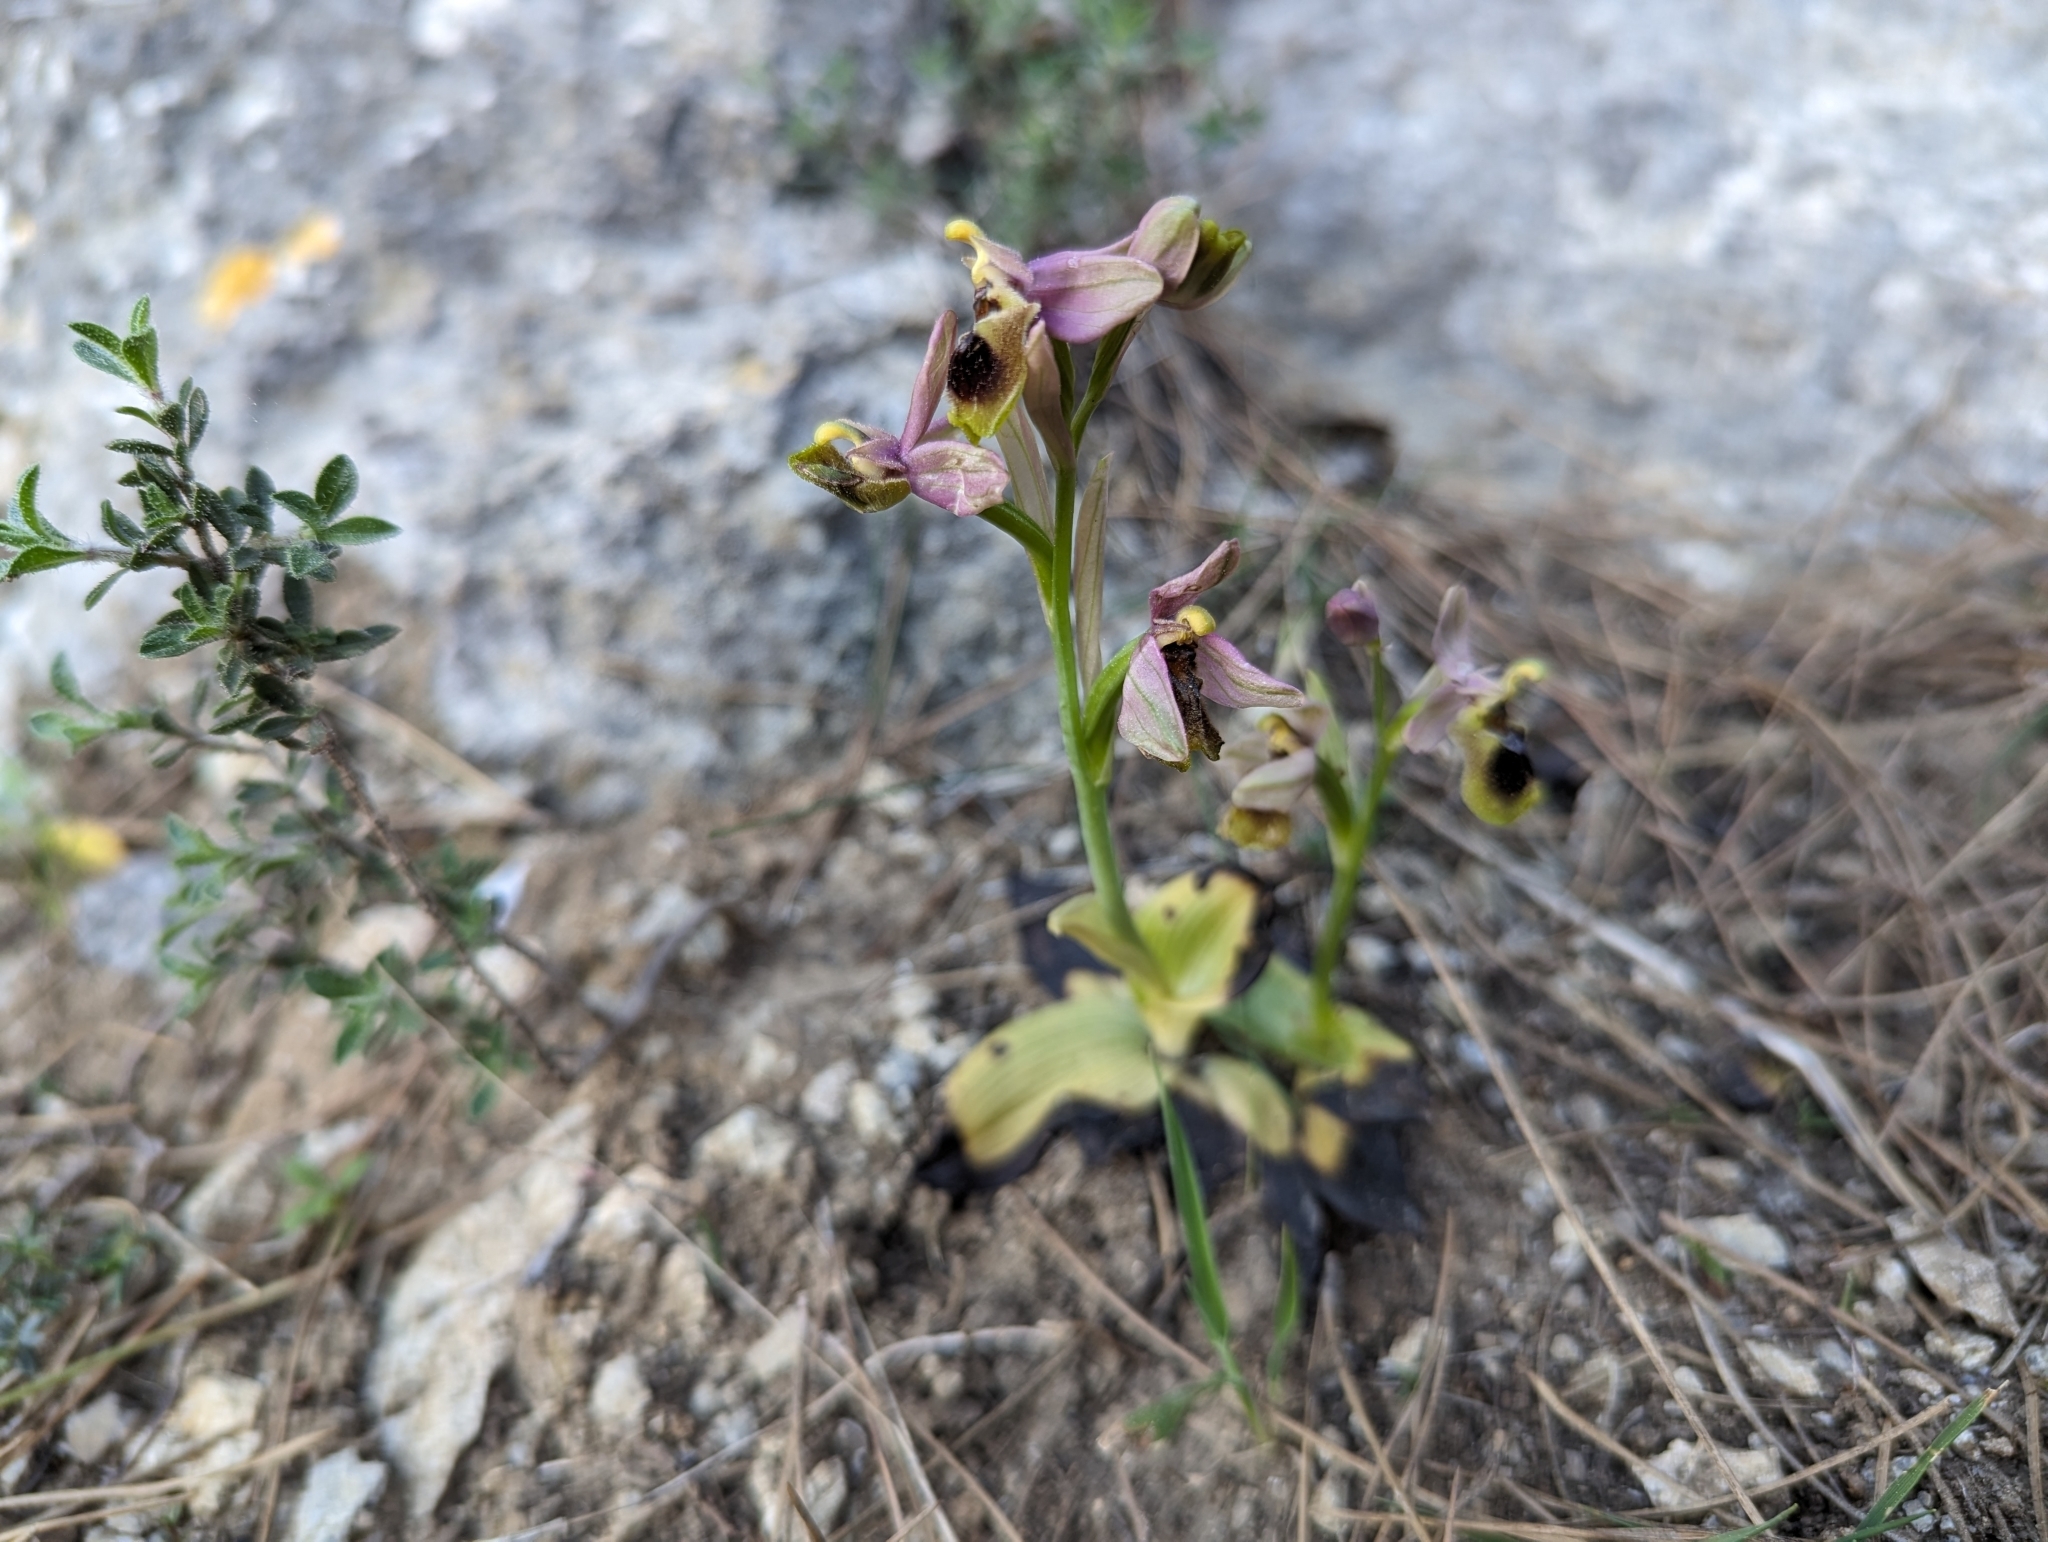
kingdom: Plantae
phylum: Tracheophyta
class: Liliopsida
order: Asparagales
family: Orchidaceae
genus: Ophrys
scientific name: Ophrys tenthredinifera
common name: Sawfly orchid
